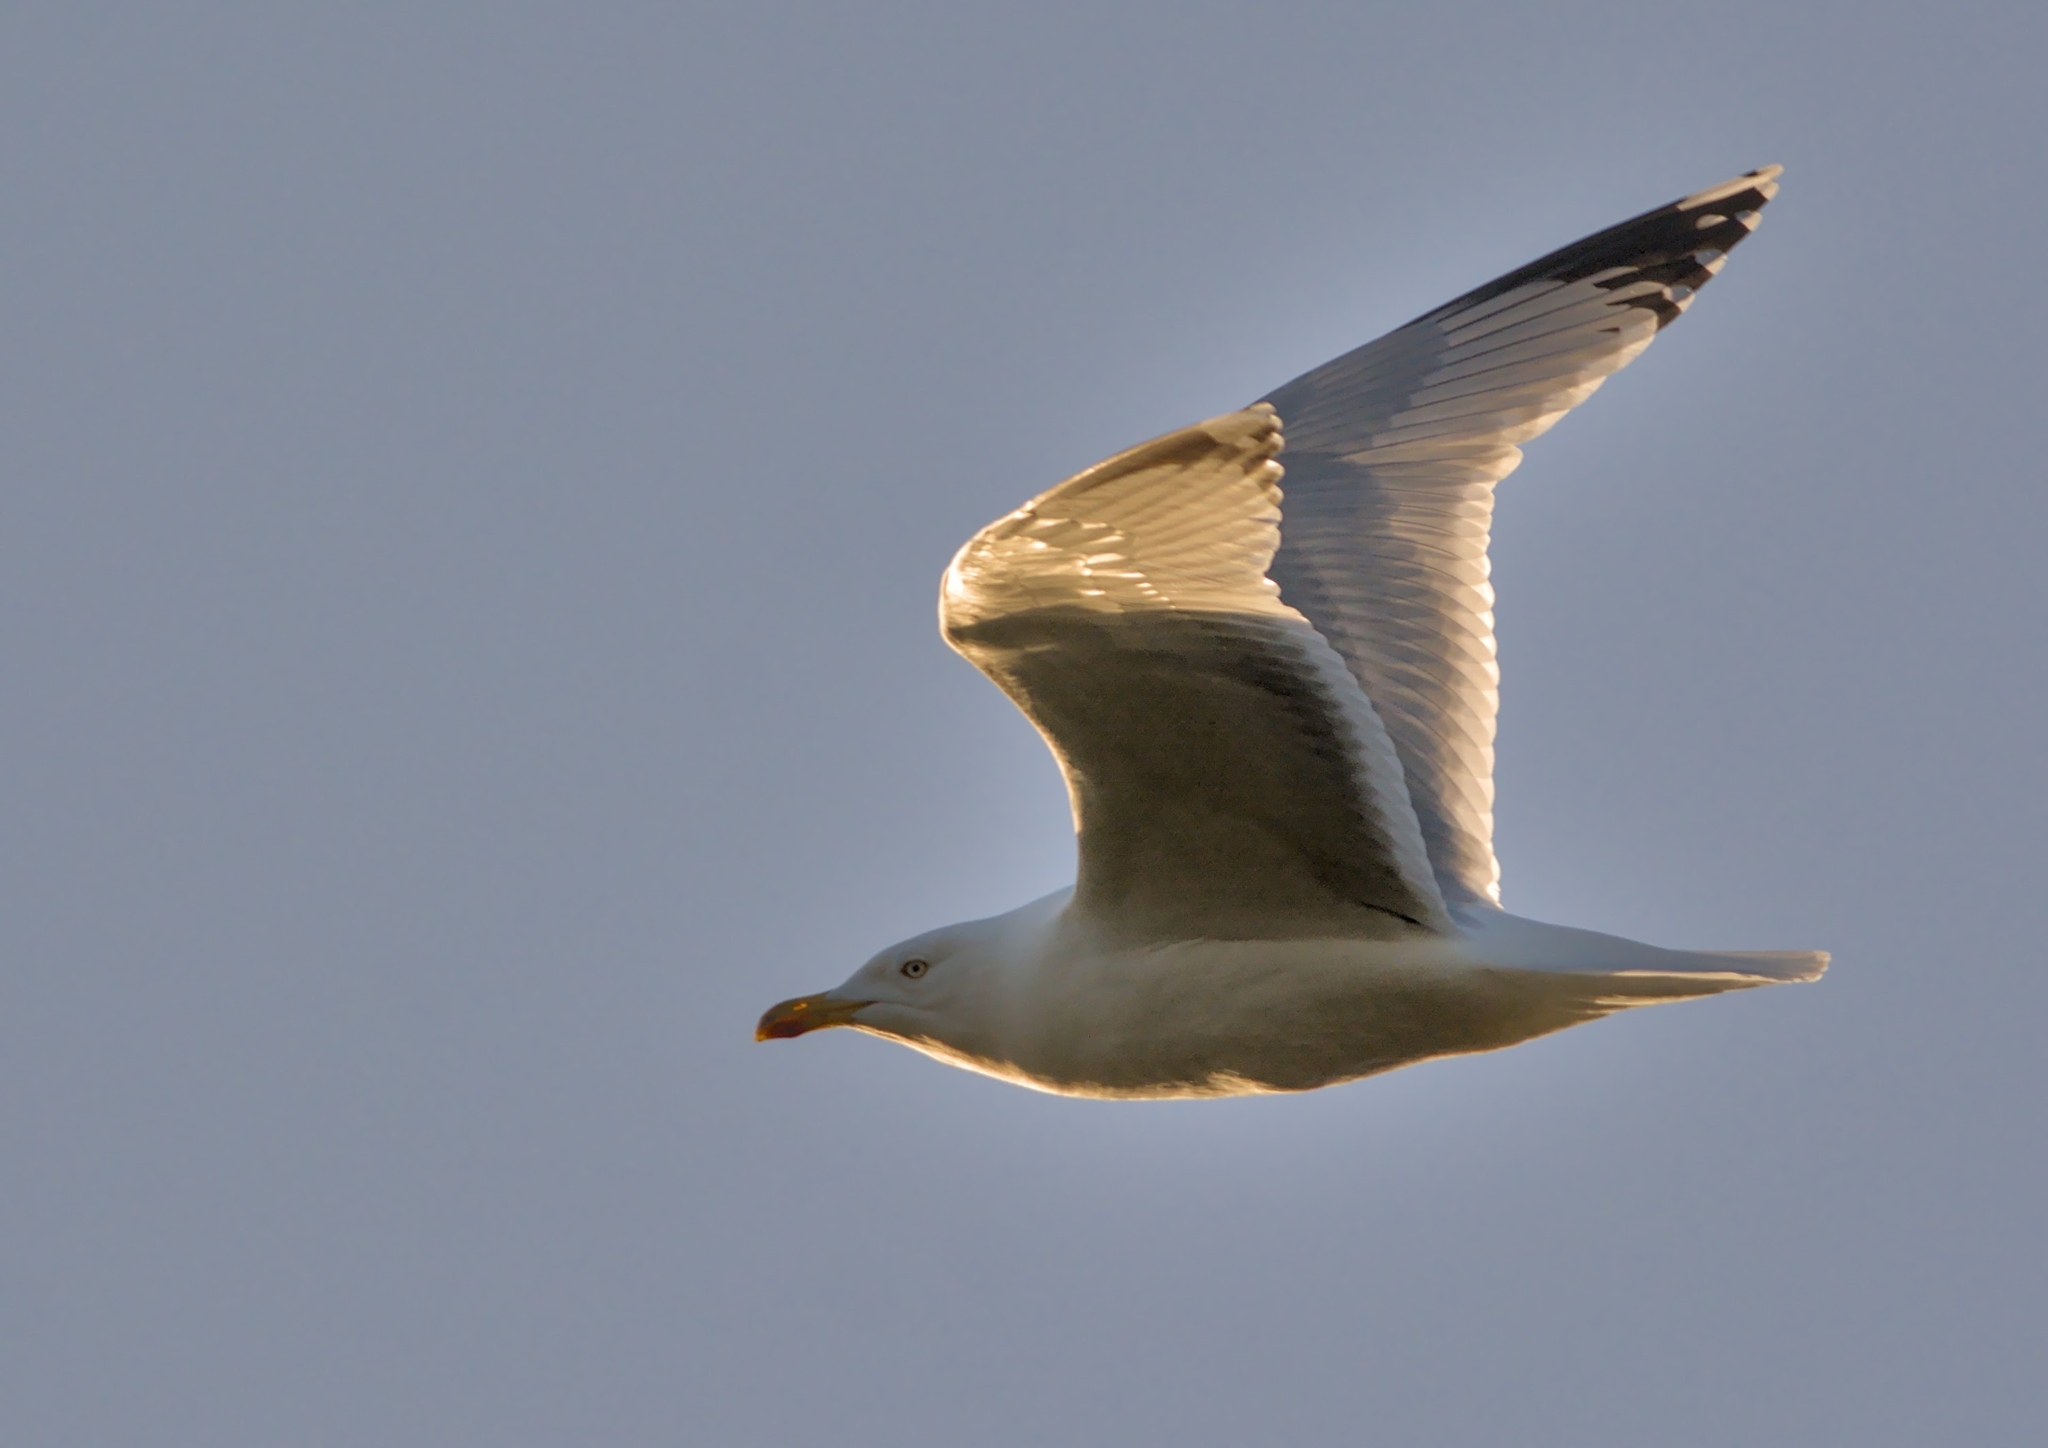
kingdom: Animalia
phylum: Chordata
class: Aves
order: Charadriiformes
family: Laridae
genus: Larus
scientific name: Larus argentatus
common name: Herring gull
